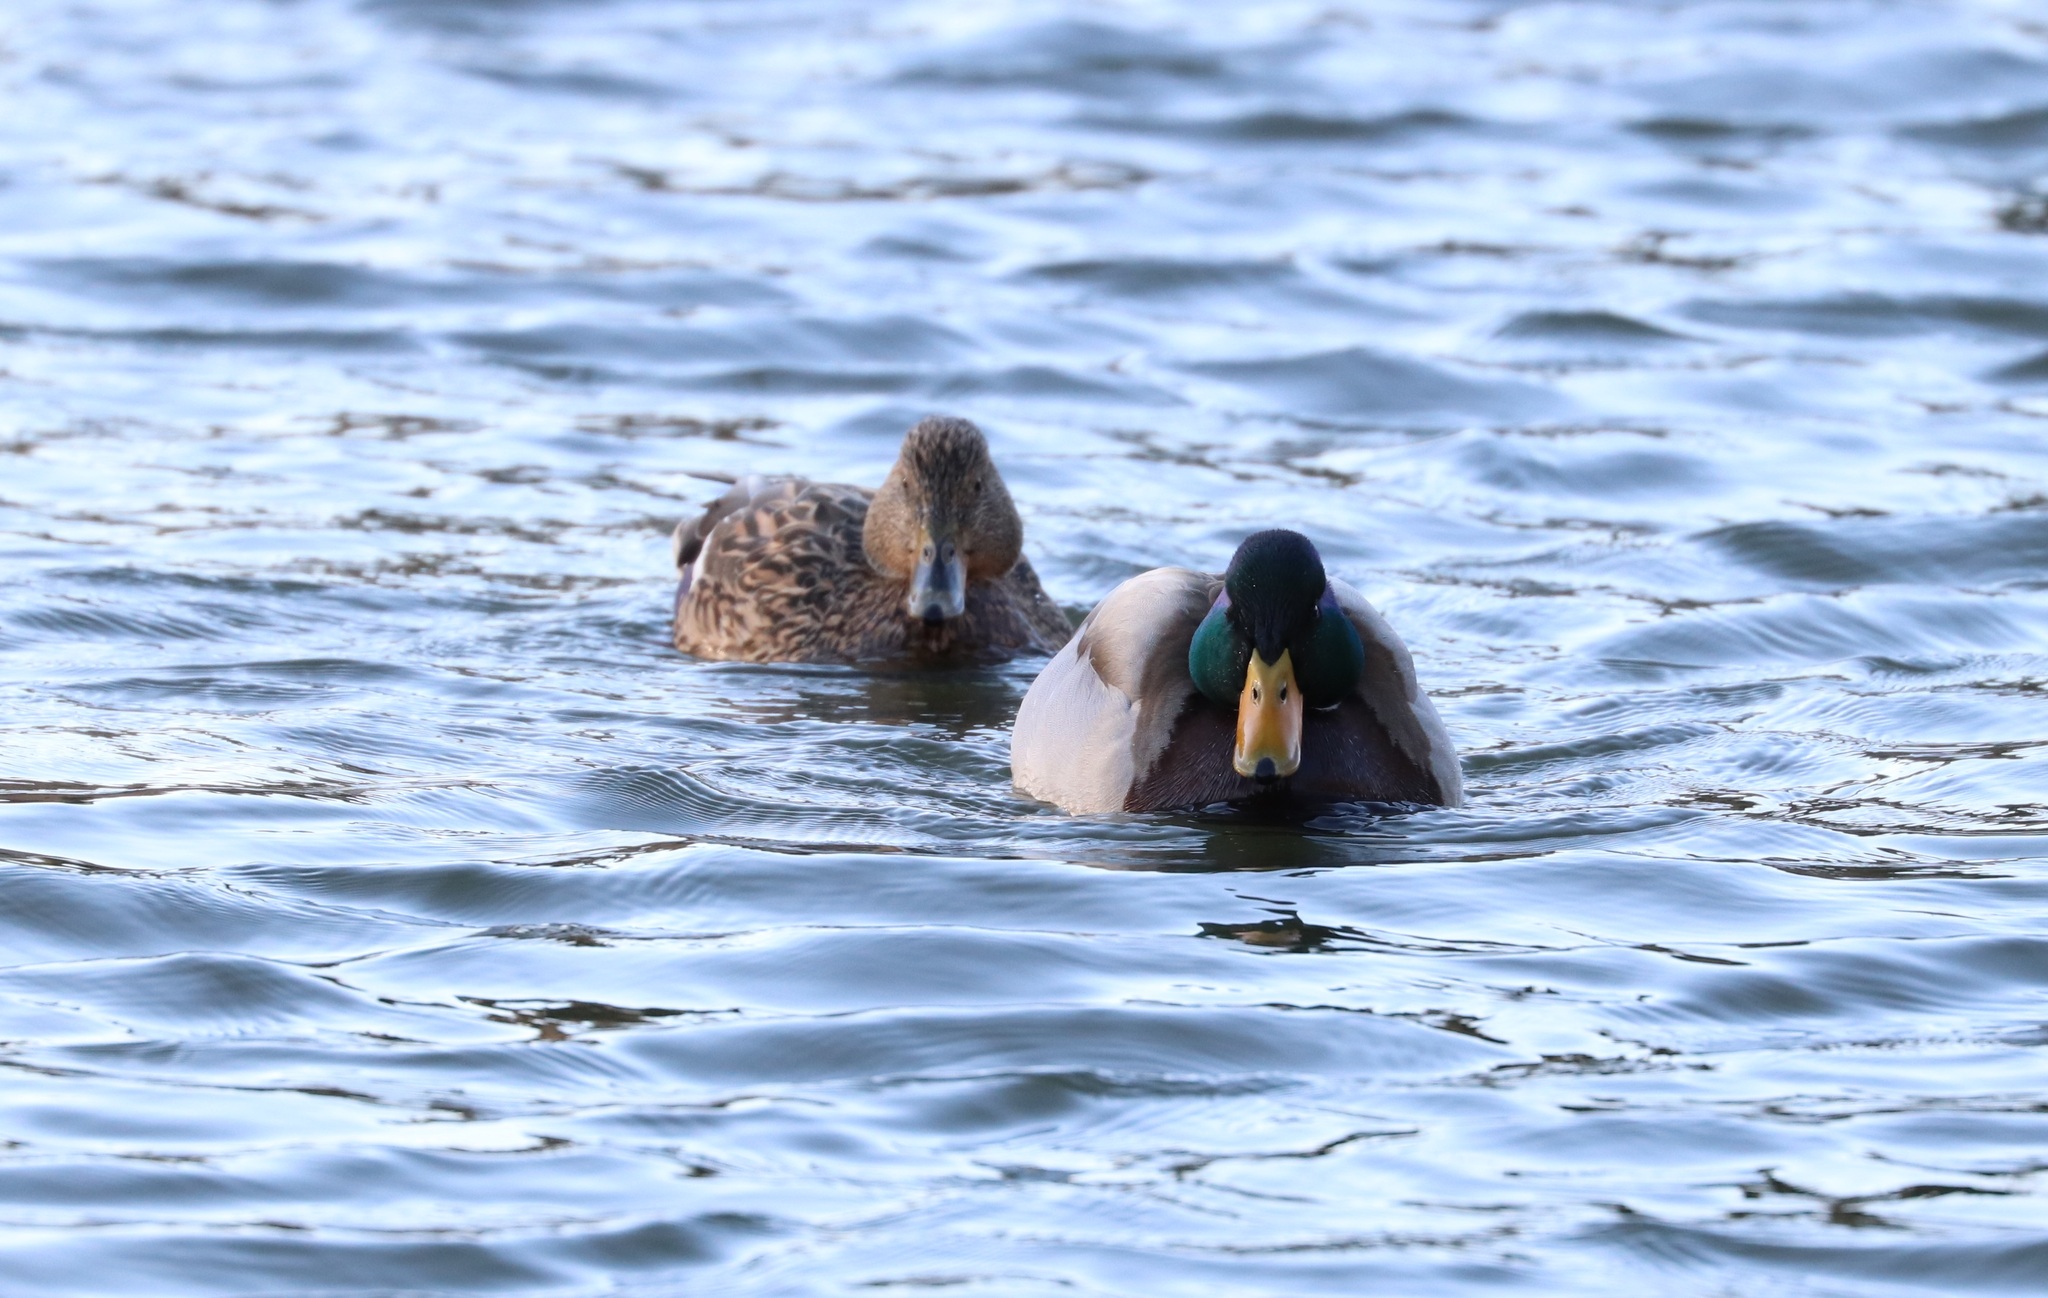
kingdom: Animalia
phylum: Chordata
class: Aves
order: Anseriformes
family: Anatidae
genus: Anas
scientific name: Anas platyrhynchos
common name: Mallard
